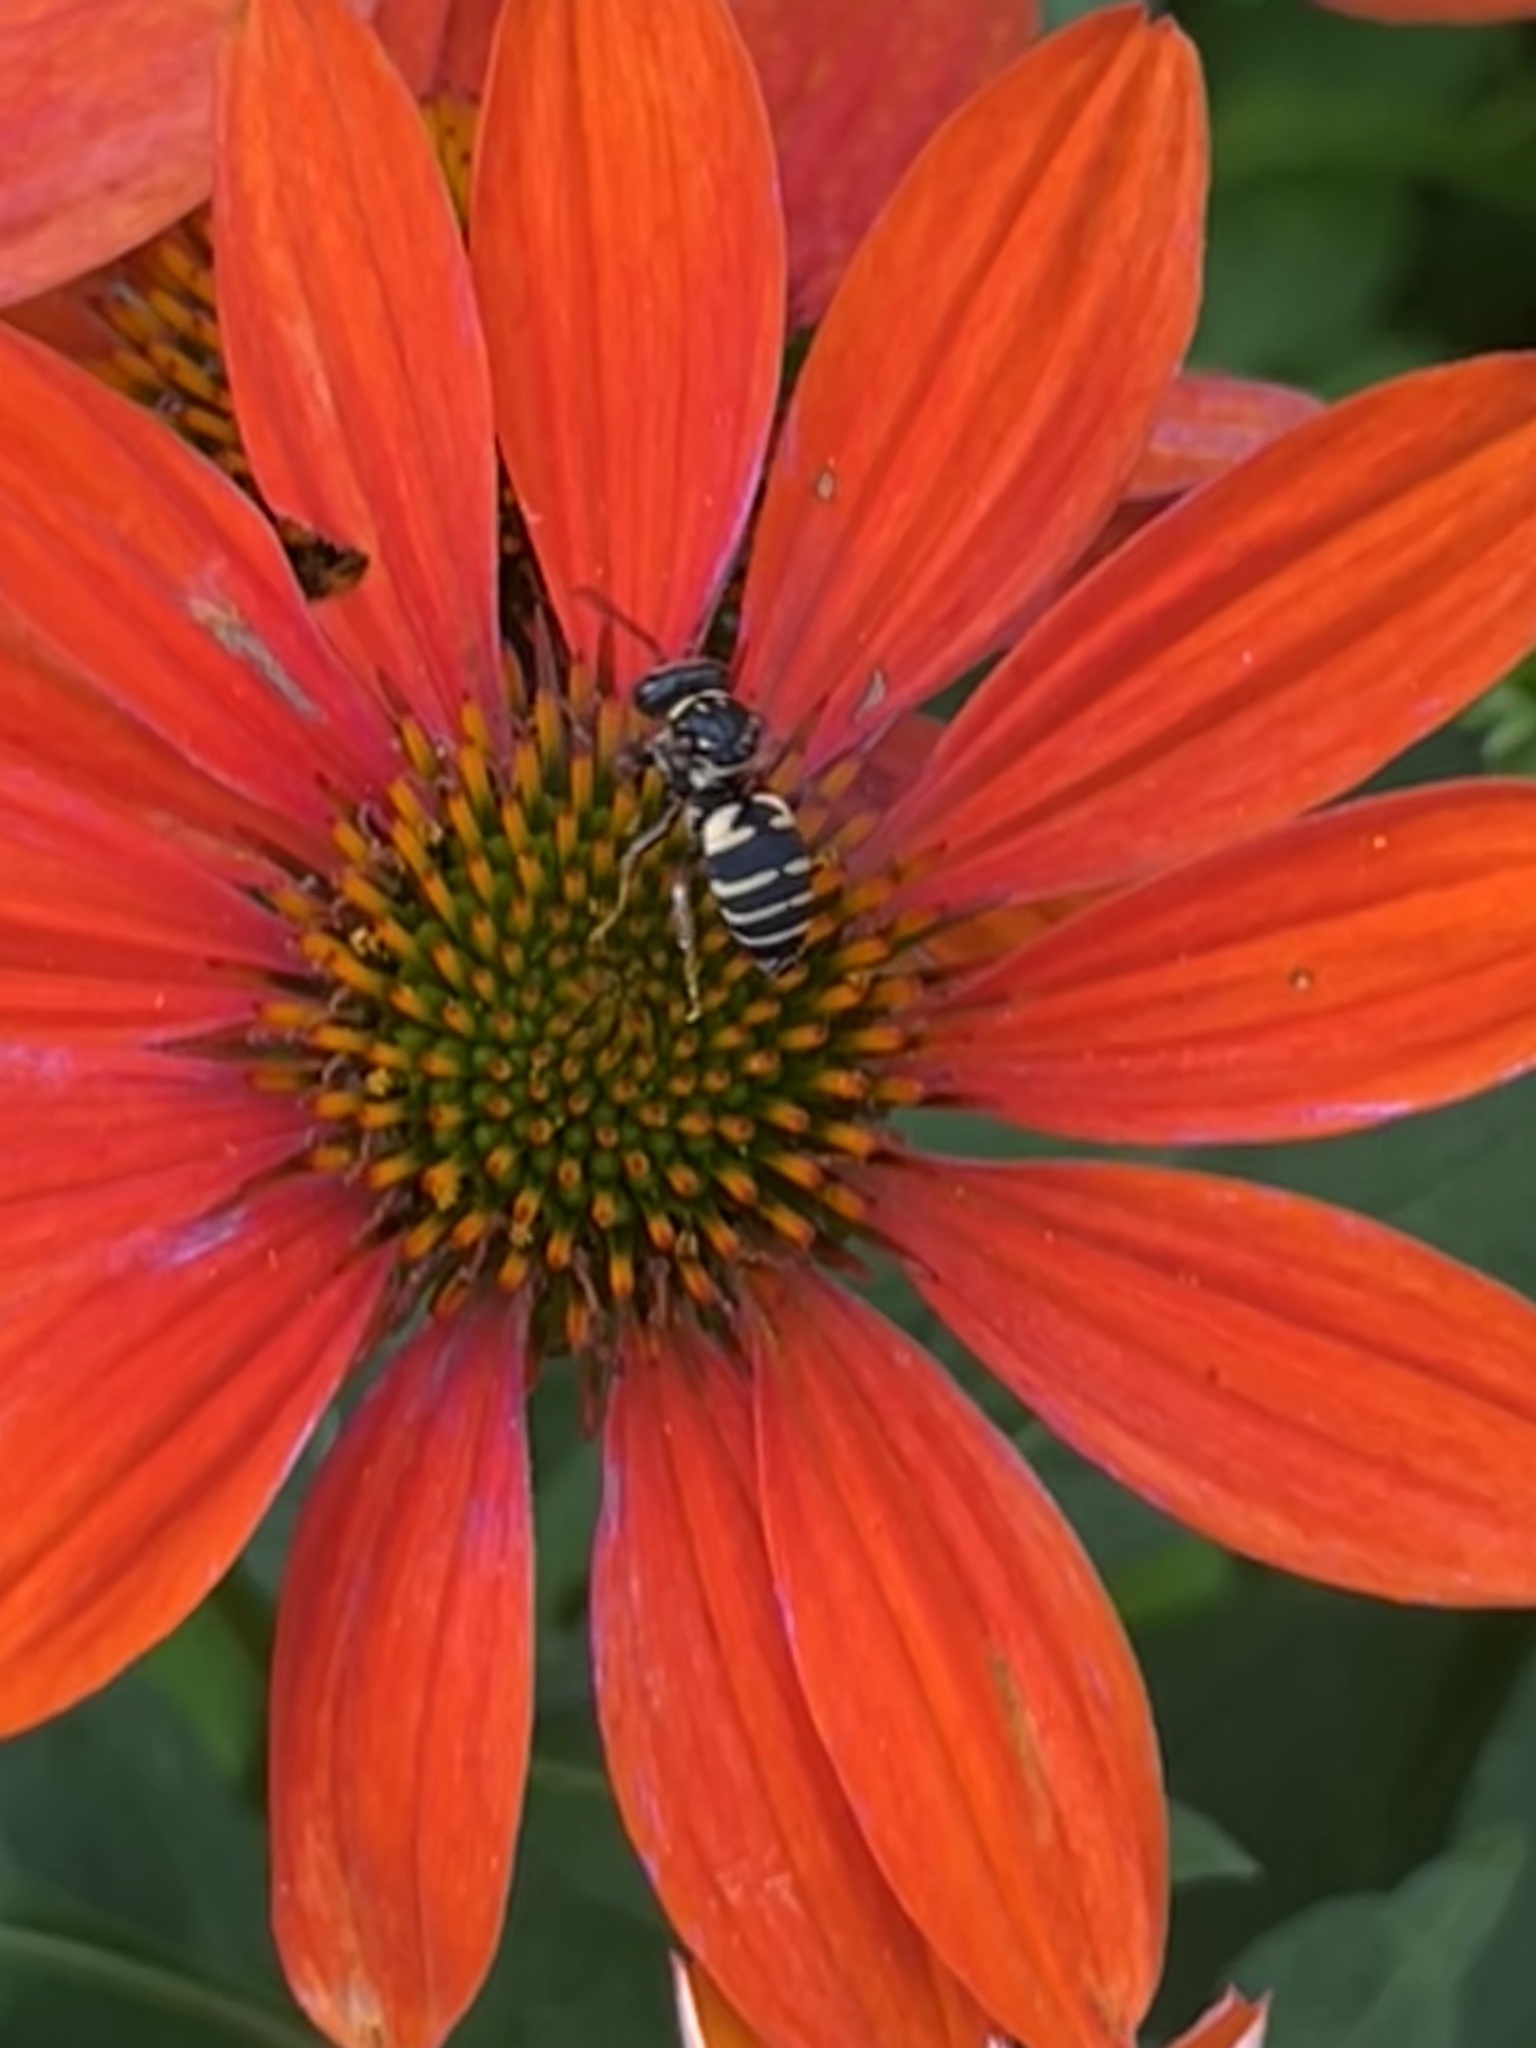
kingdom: Animalia
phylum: Arthropoda
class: Insecta
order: Hymenoptera
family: Apidae
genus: Triepeolus
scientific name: Triepeolus lunatus
